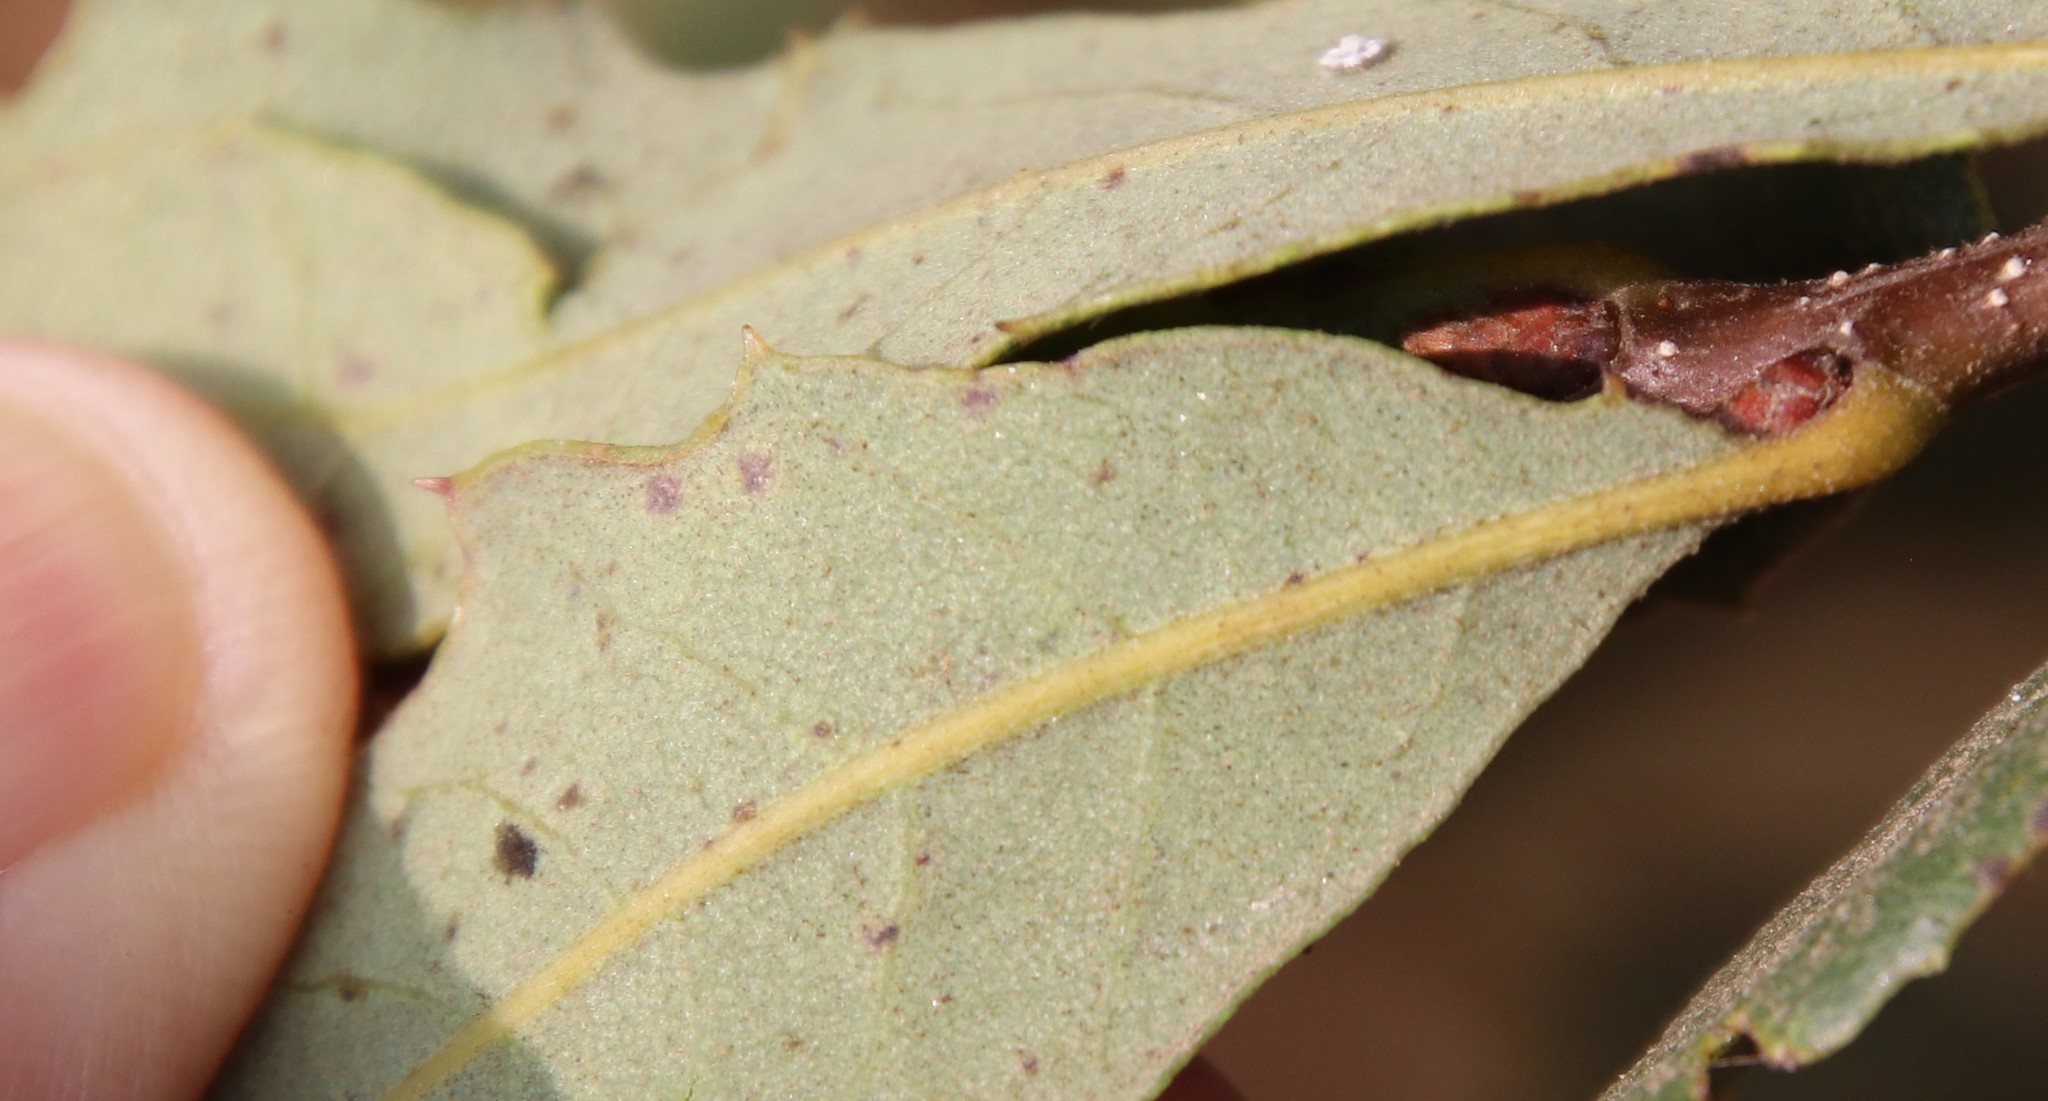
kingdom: Plantae
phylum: Tracheophyta
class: Magnoliopsida
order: Fagales
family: Fagaceae
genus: Quercus
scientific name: Quercus berberidifolia
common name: California scrub oak
